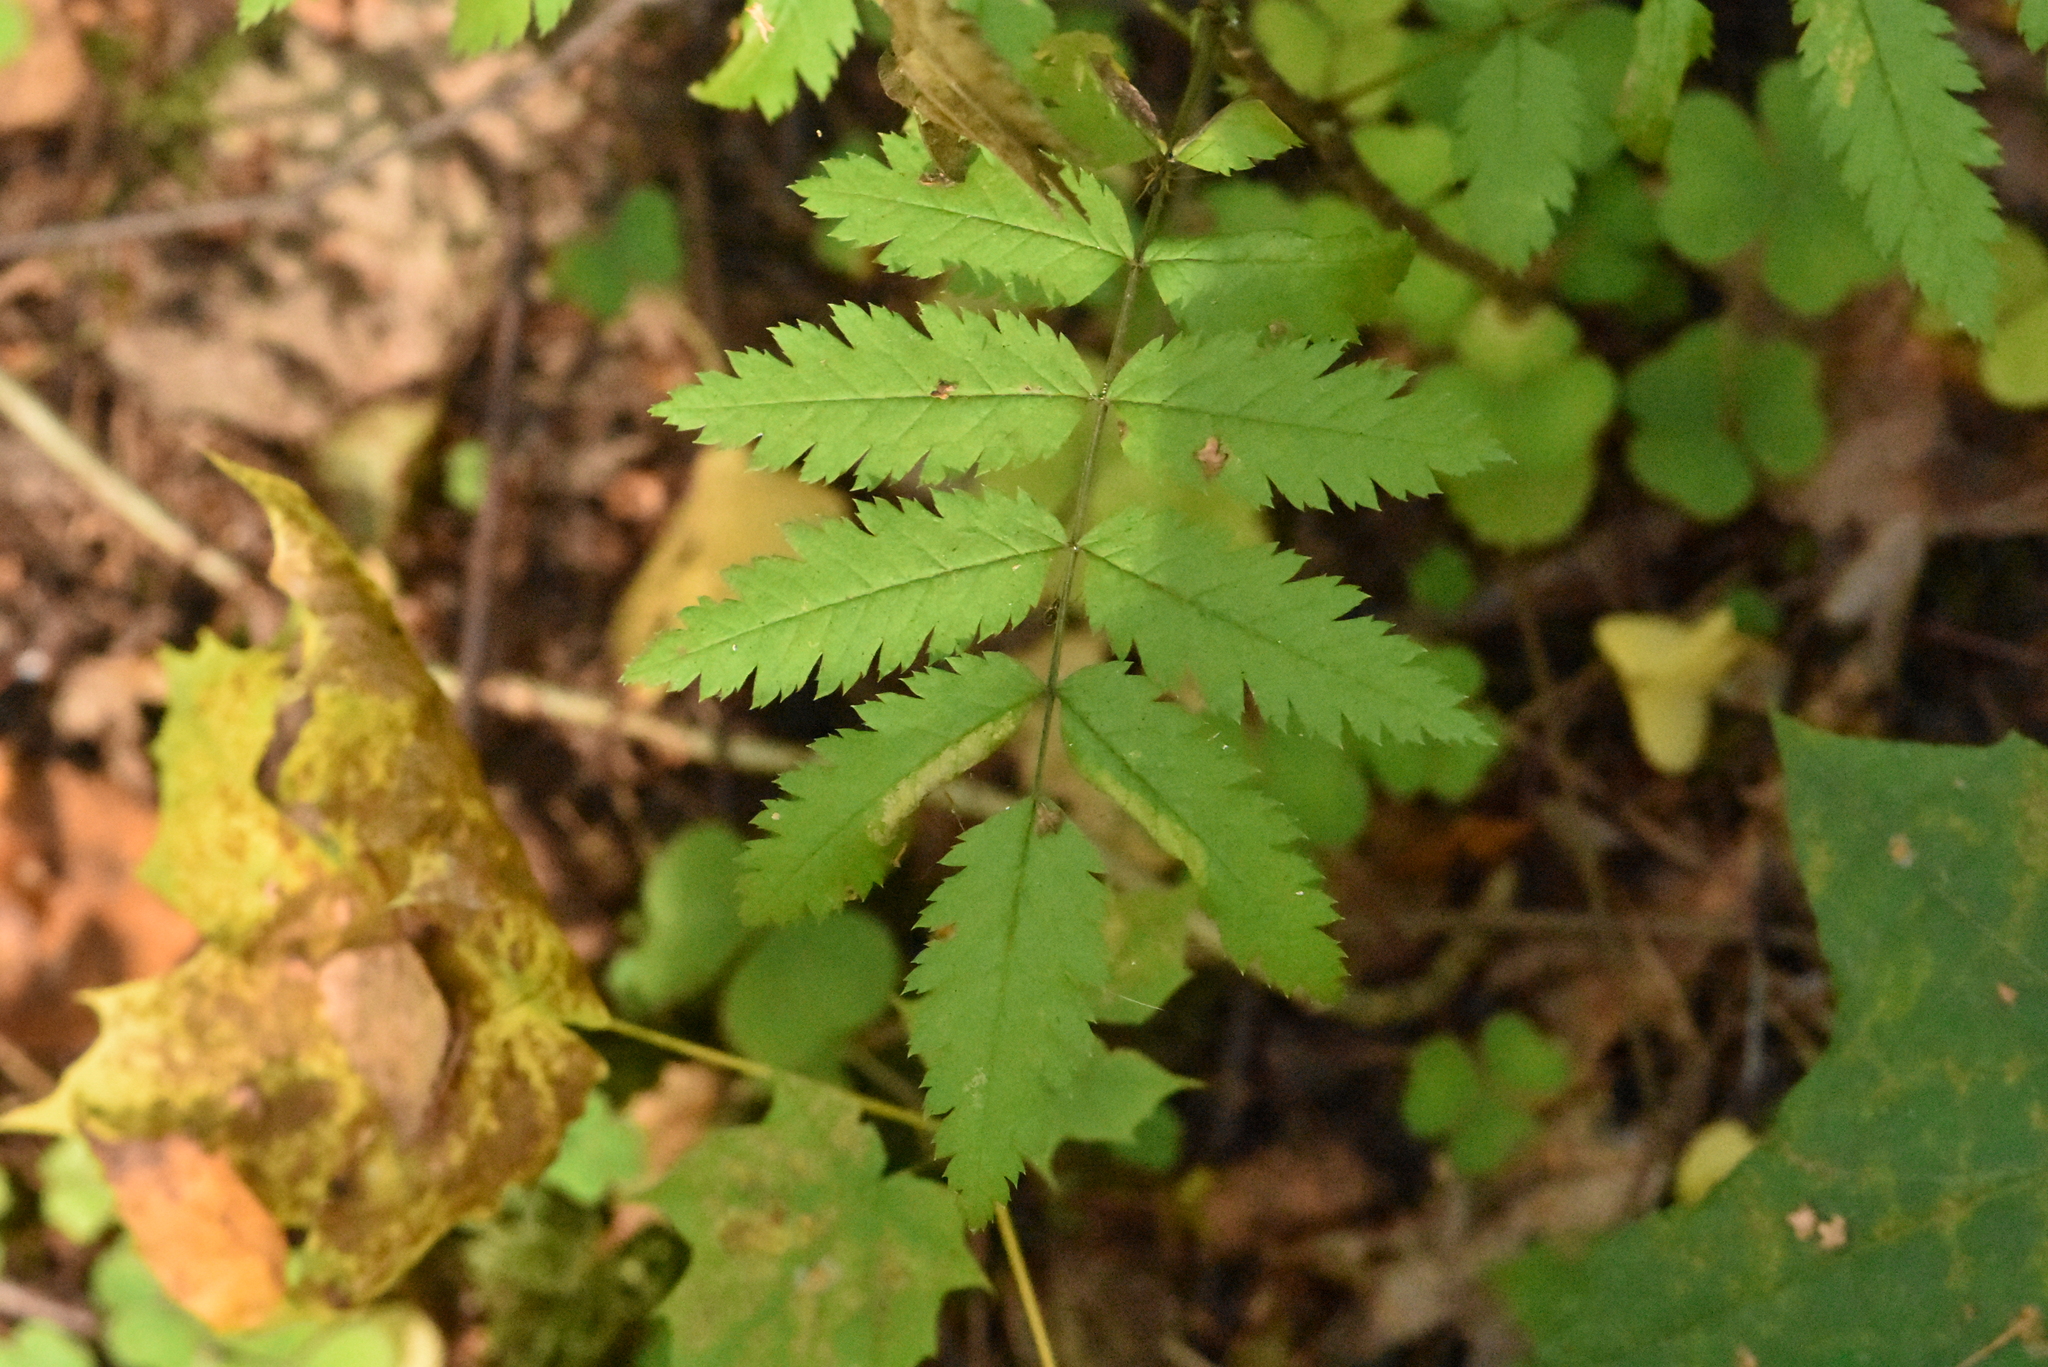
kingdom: Plantae
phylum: Tracheophyta
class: Magnoliopsida
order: Rosales
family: Rosaceae
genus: Sorbus
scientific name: Sorbus aucuparia
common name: Rowan
